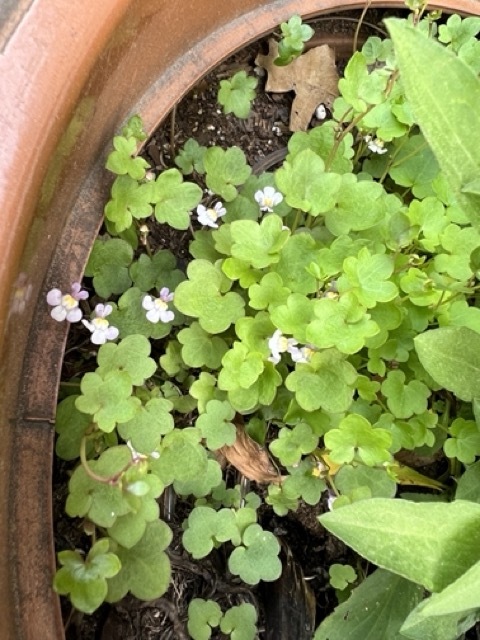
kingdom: Plantae
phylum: Tracheophyta
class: Magnoliopsida
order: Lamiales
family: Plantaginaceae
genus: Cymbalaria
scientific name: Cymbalaria muralis
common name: Ivy-leaved toadflax
